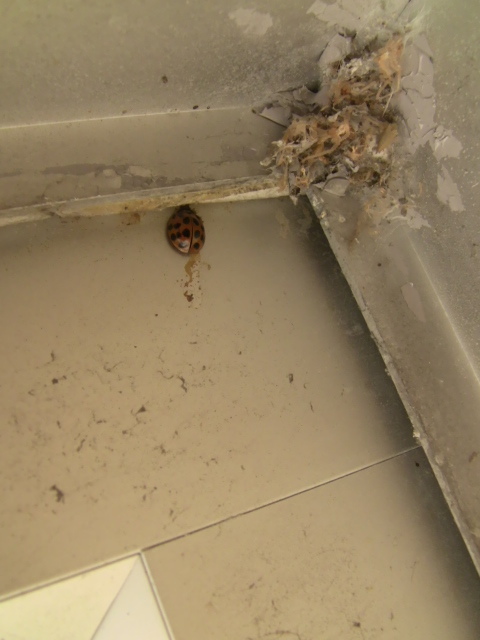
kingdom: Animalia
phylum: Arthropoda
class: Insecta
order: Coleoptera
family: Coccinellidae
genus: Harmonia
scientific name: Harmonia axyridis
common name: Harlequin ladybird
